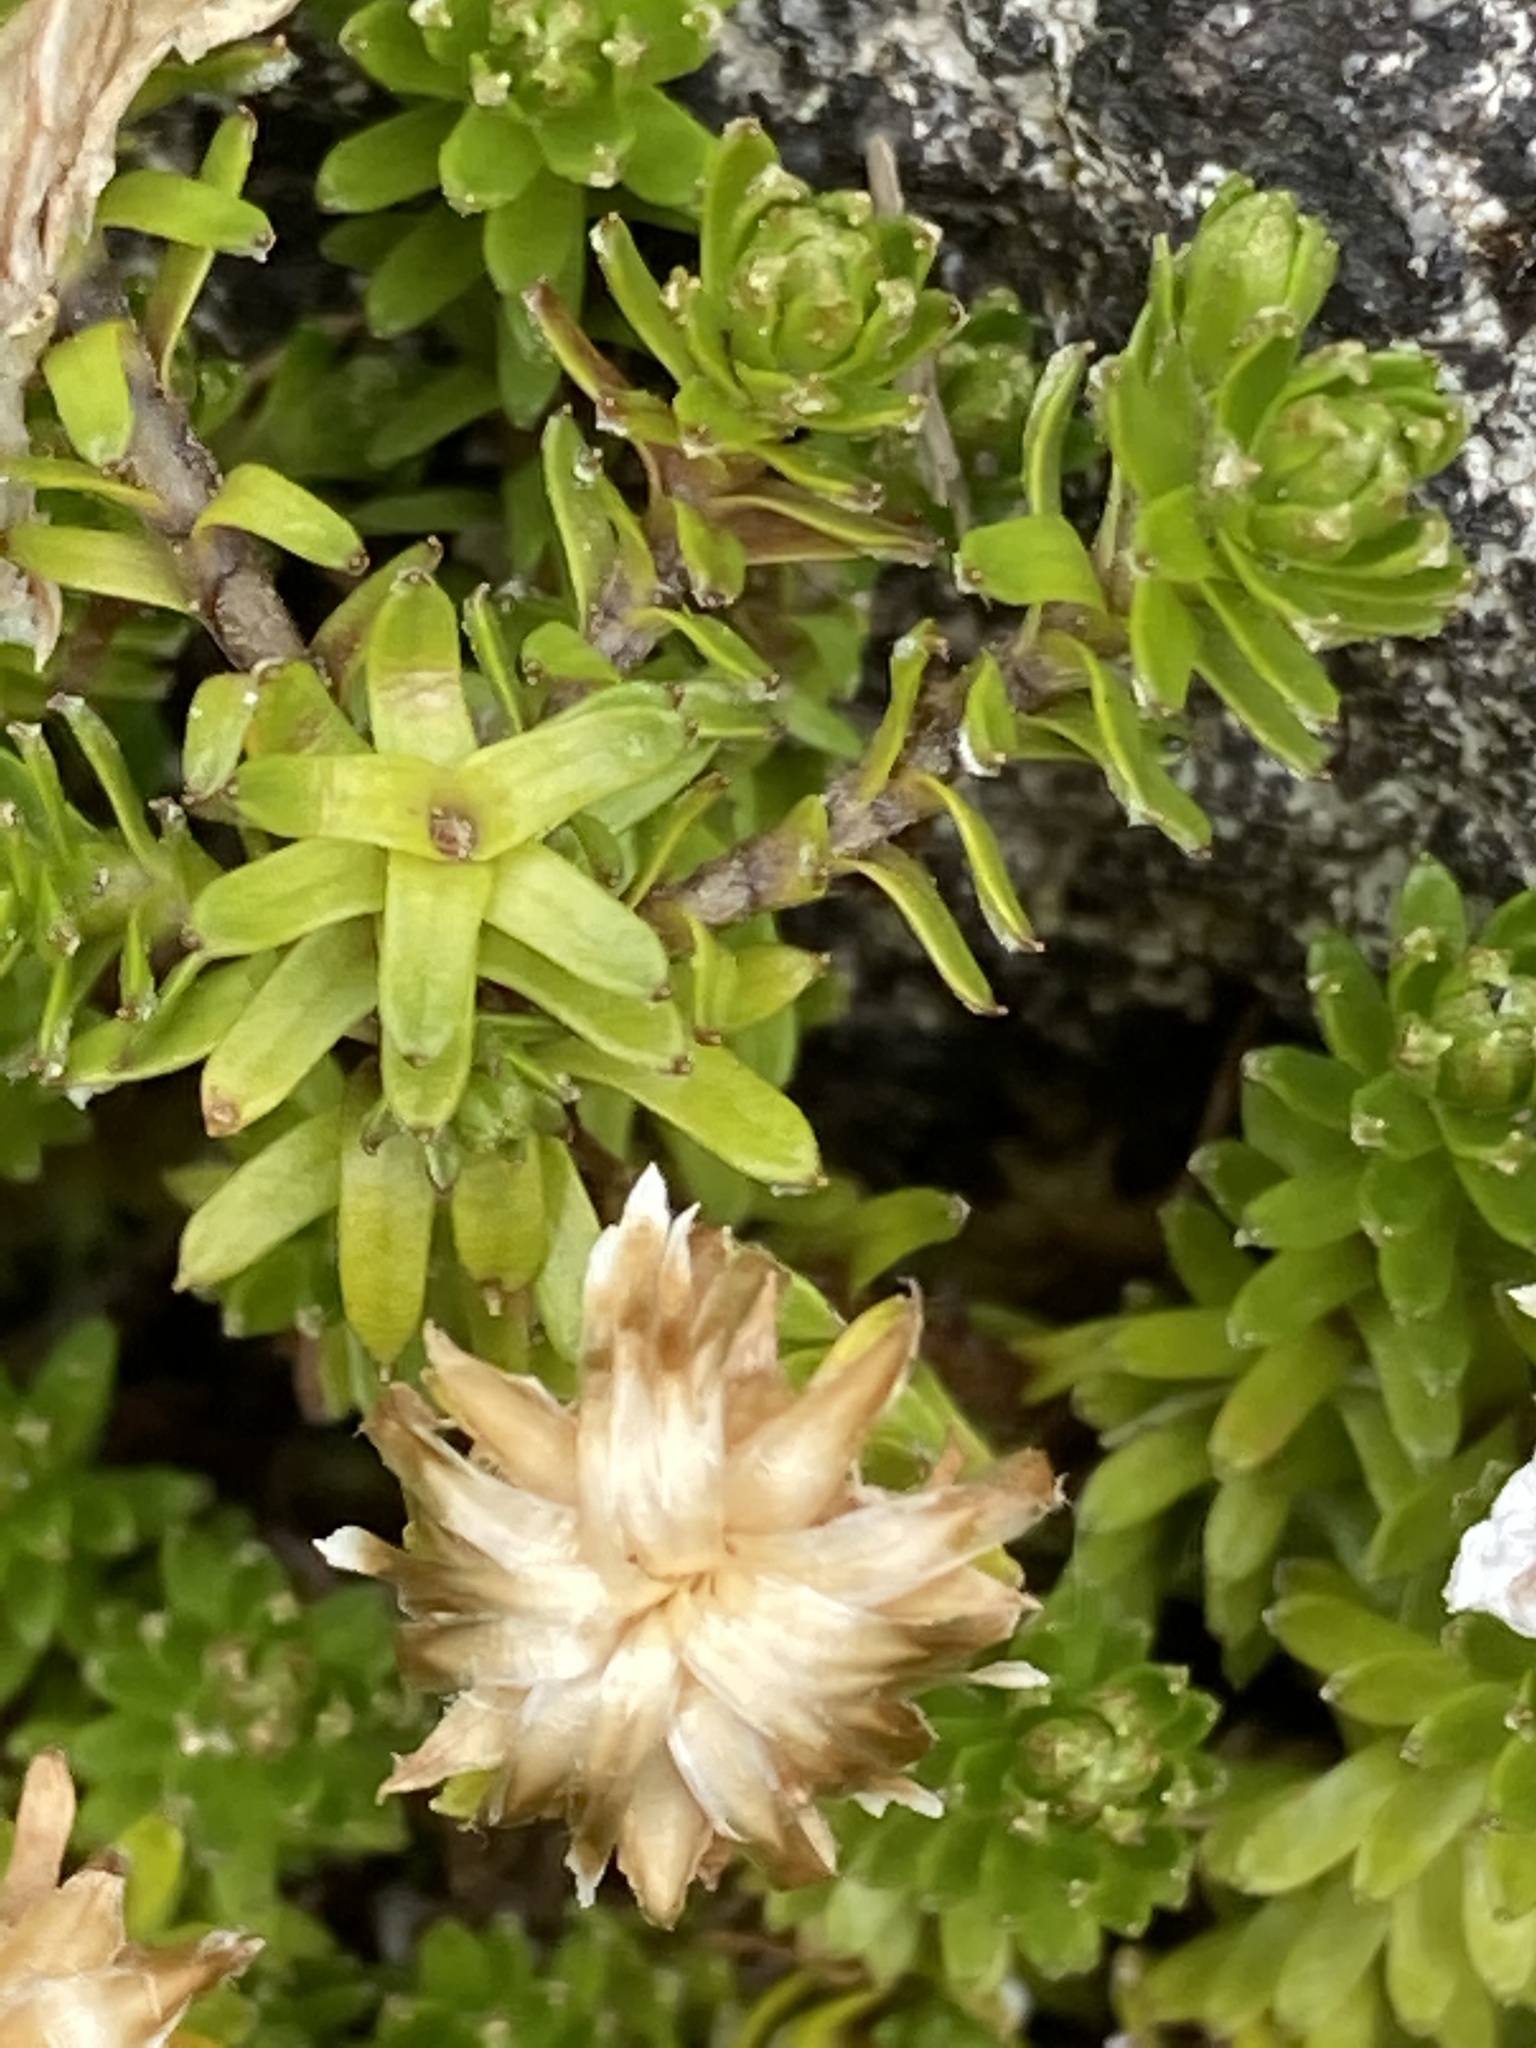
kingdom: Plantae
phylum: Tracheophyta
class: Magnoliopsida
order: Asterales
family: Asteraceae
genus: Raoulia
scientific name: Raoulia glabra
